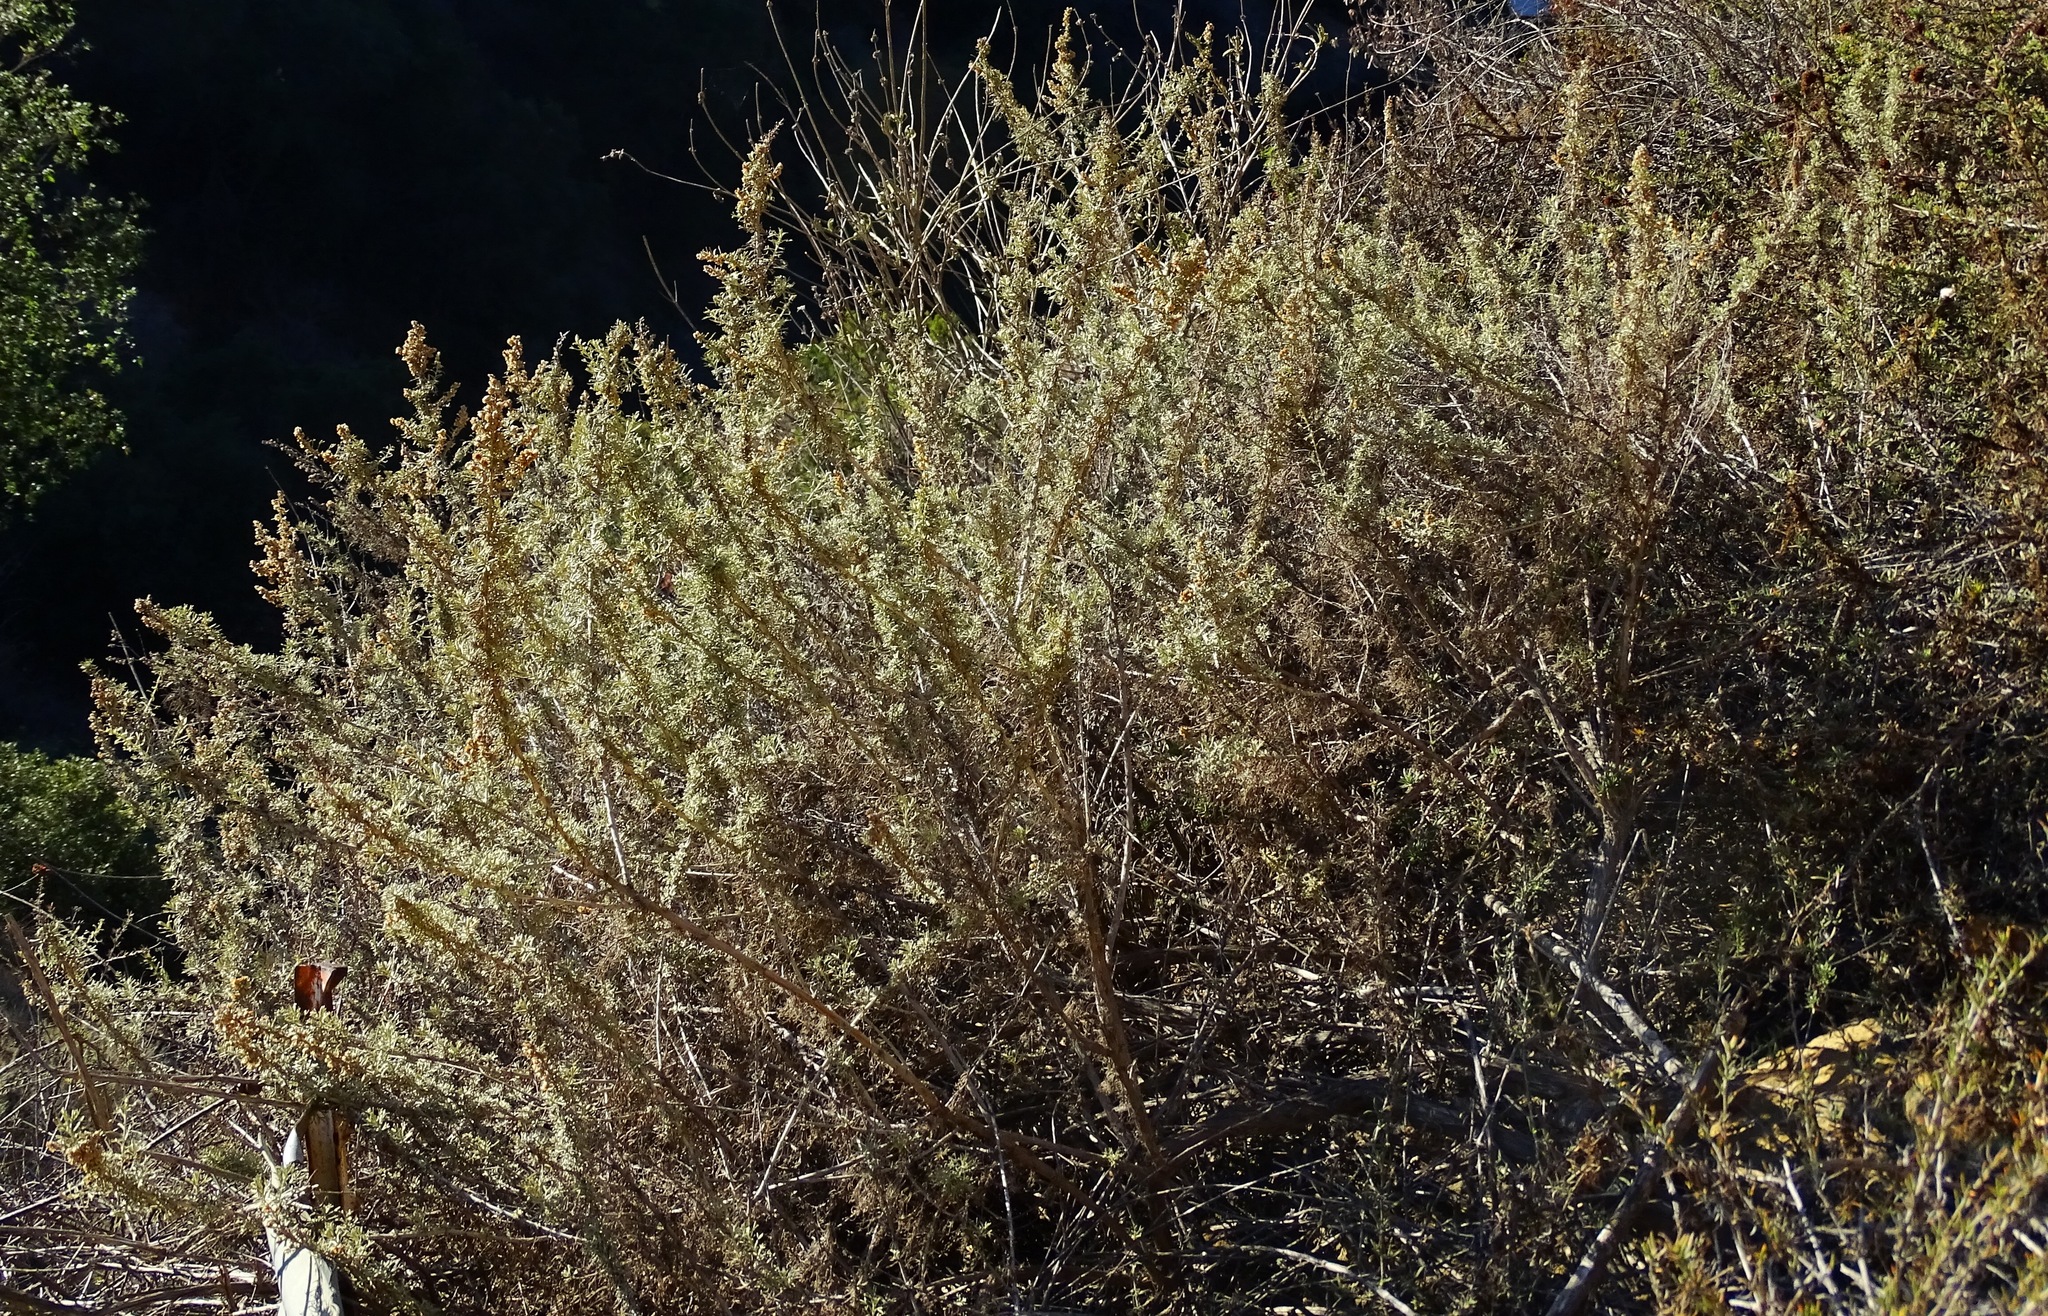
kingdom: Plantae
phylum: Tracheophyta
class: Magnoliopsida
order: Asterales
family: Asteraceae
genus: Artemisia
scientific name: Artemisia californica
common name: California sagebrush
